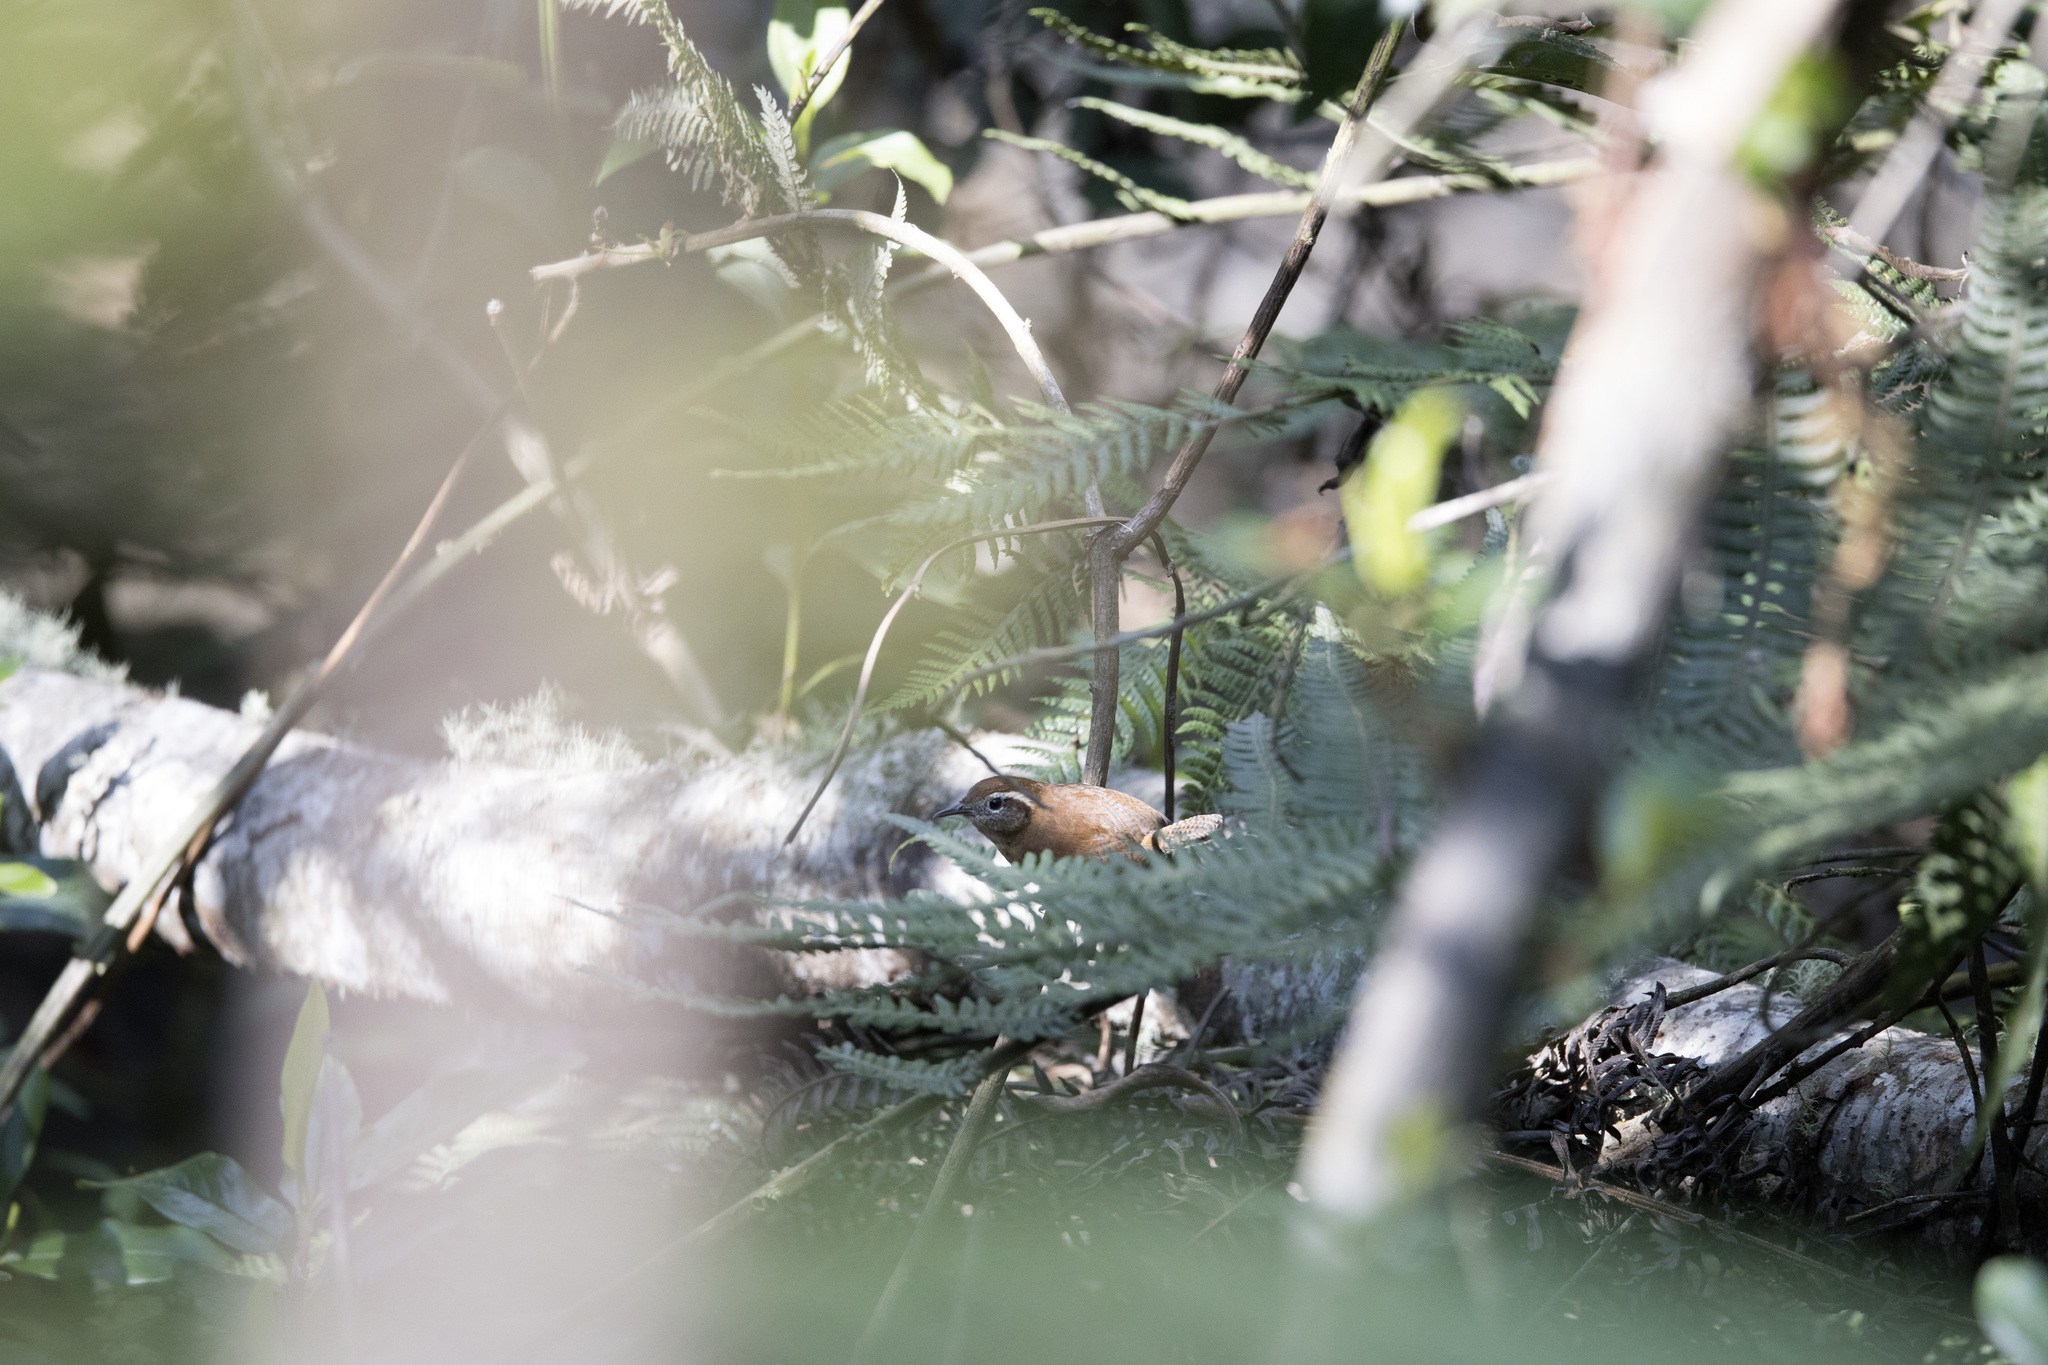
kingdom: Animalia
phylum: Chordata
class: Aves
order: Passeriformes
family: Troglodytidae
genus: Troglodytes
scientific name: Troglodytes solstitialis
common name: Mountain wren
